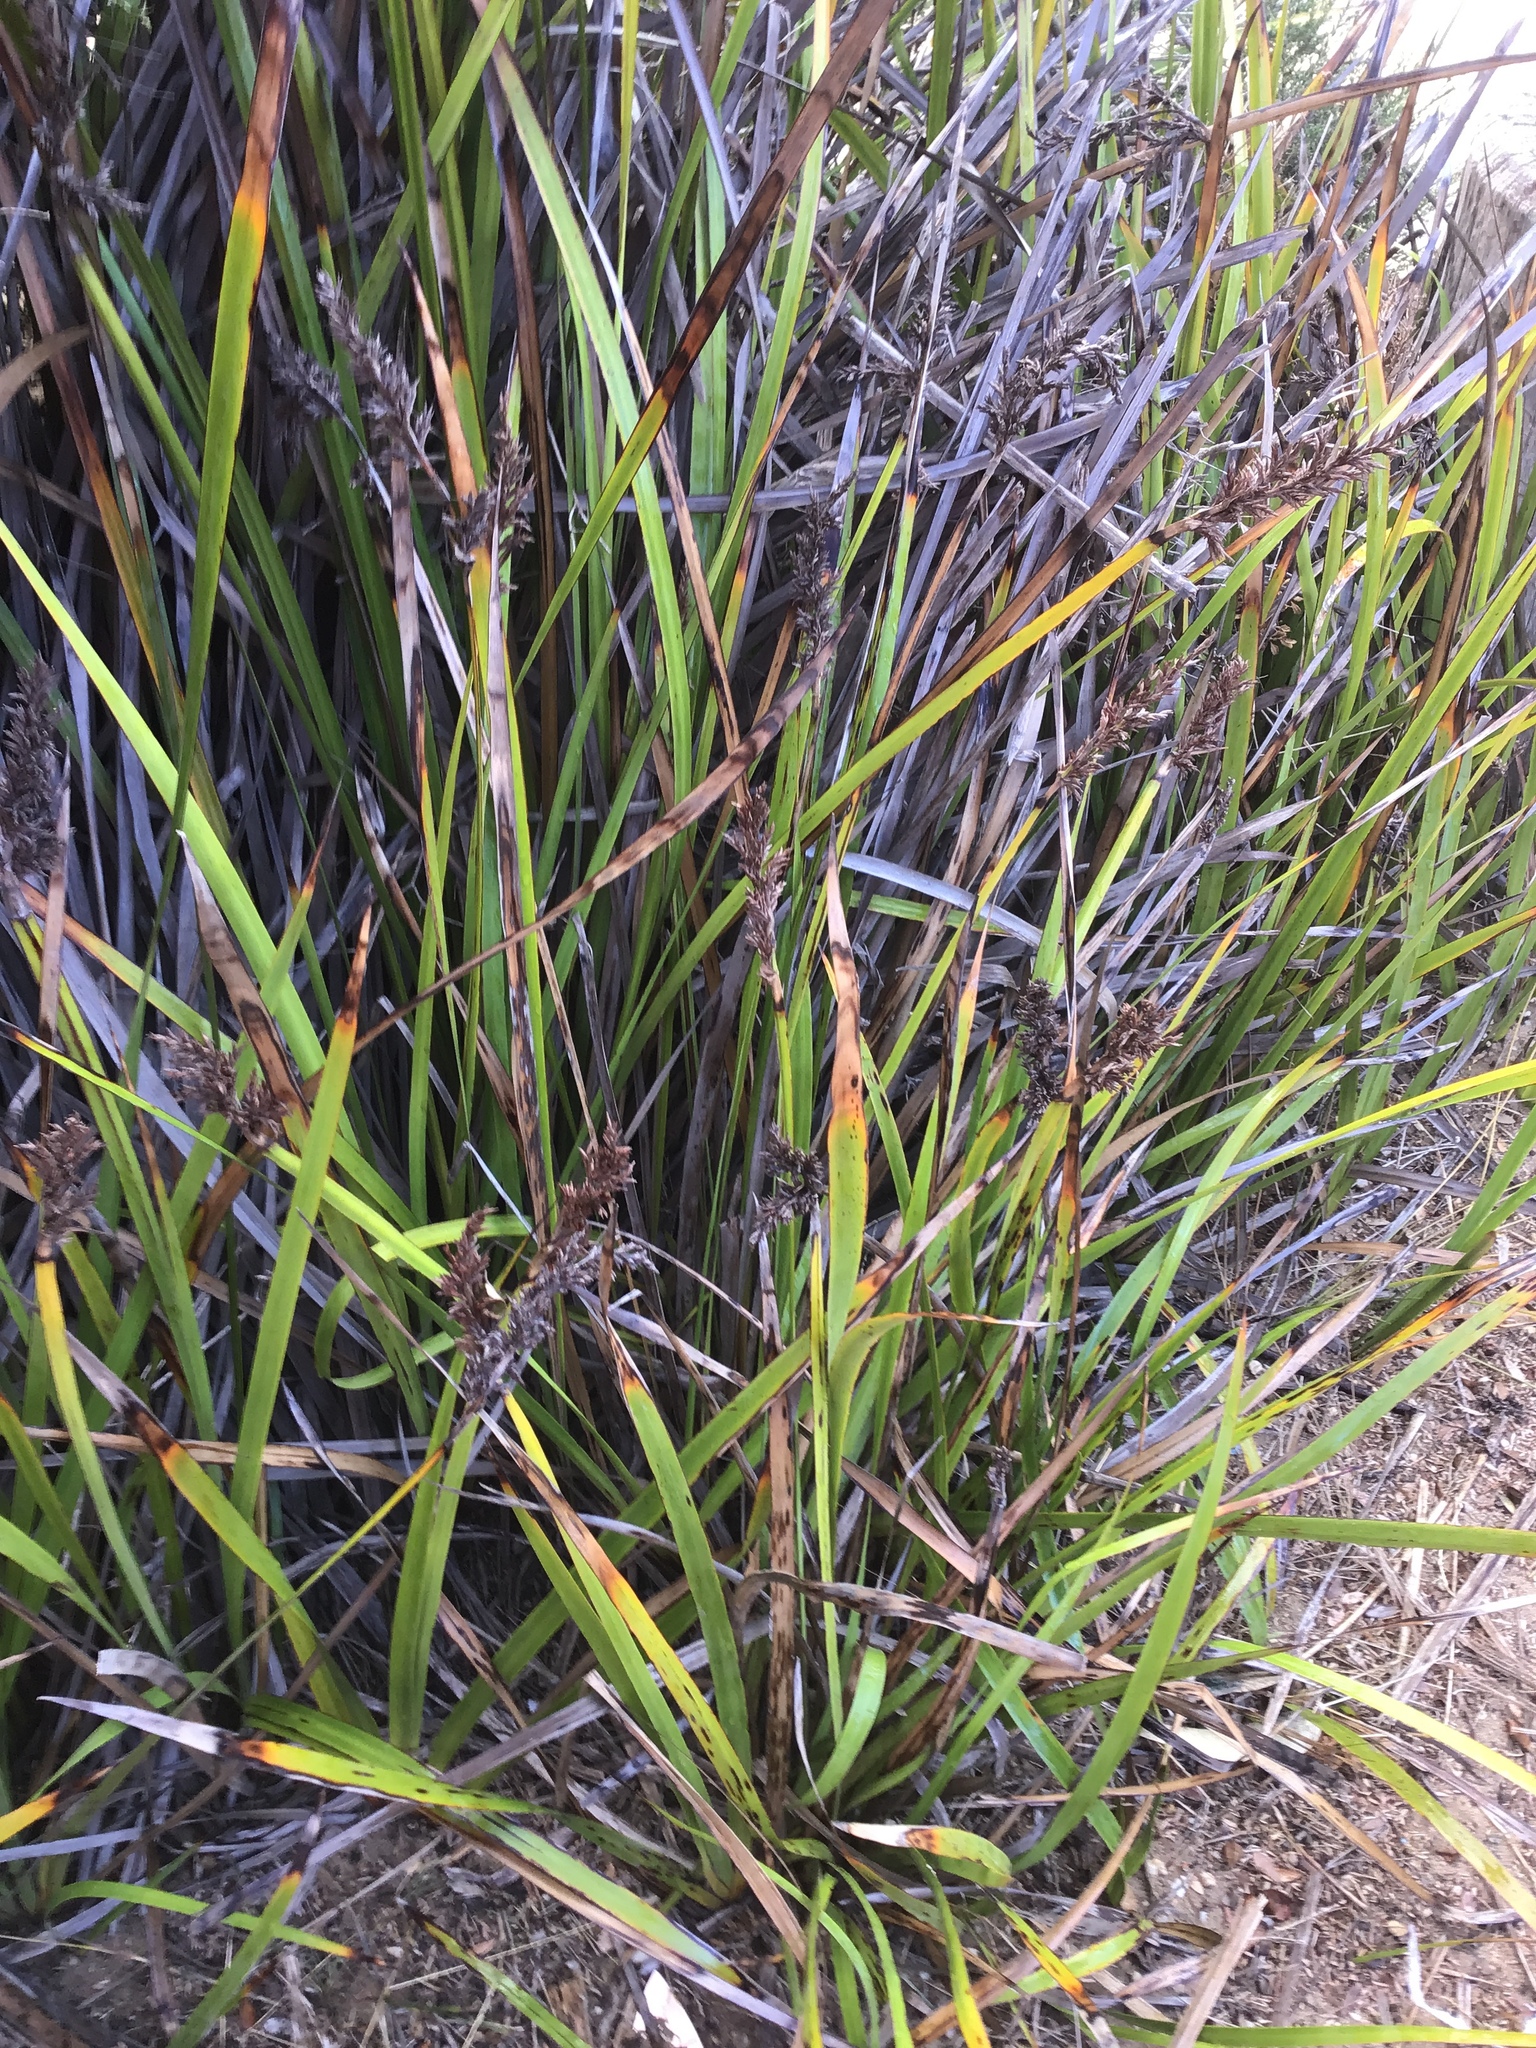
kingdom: Plantae
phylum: Tracheophyta
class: Liliopsida
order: Poales
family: Cyperaceae
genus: Lepidosperma
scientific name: Lepidosperma gladiatum
